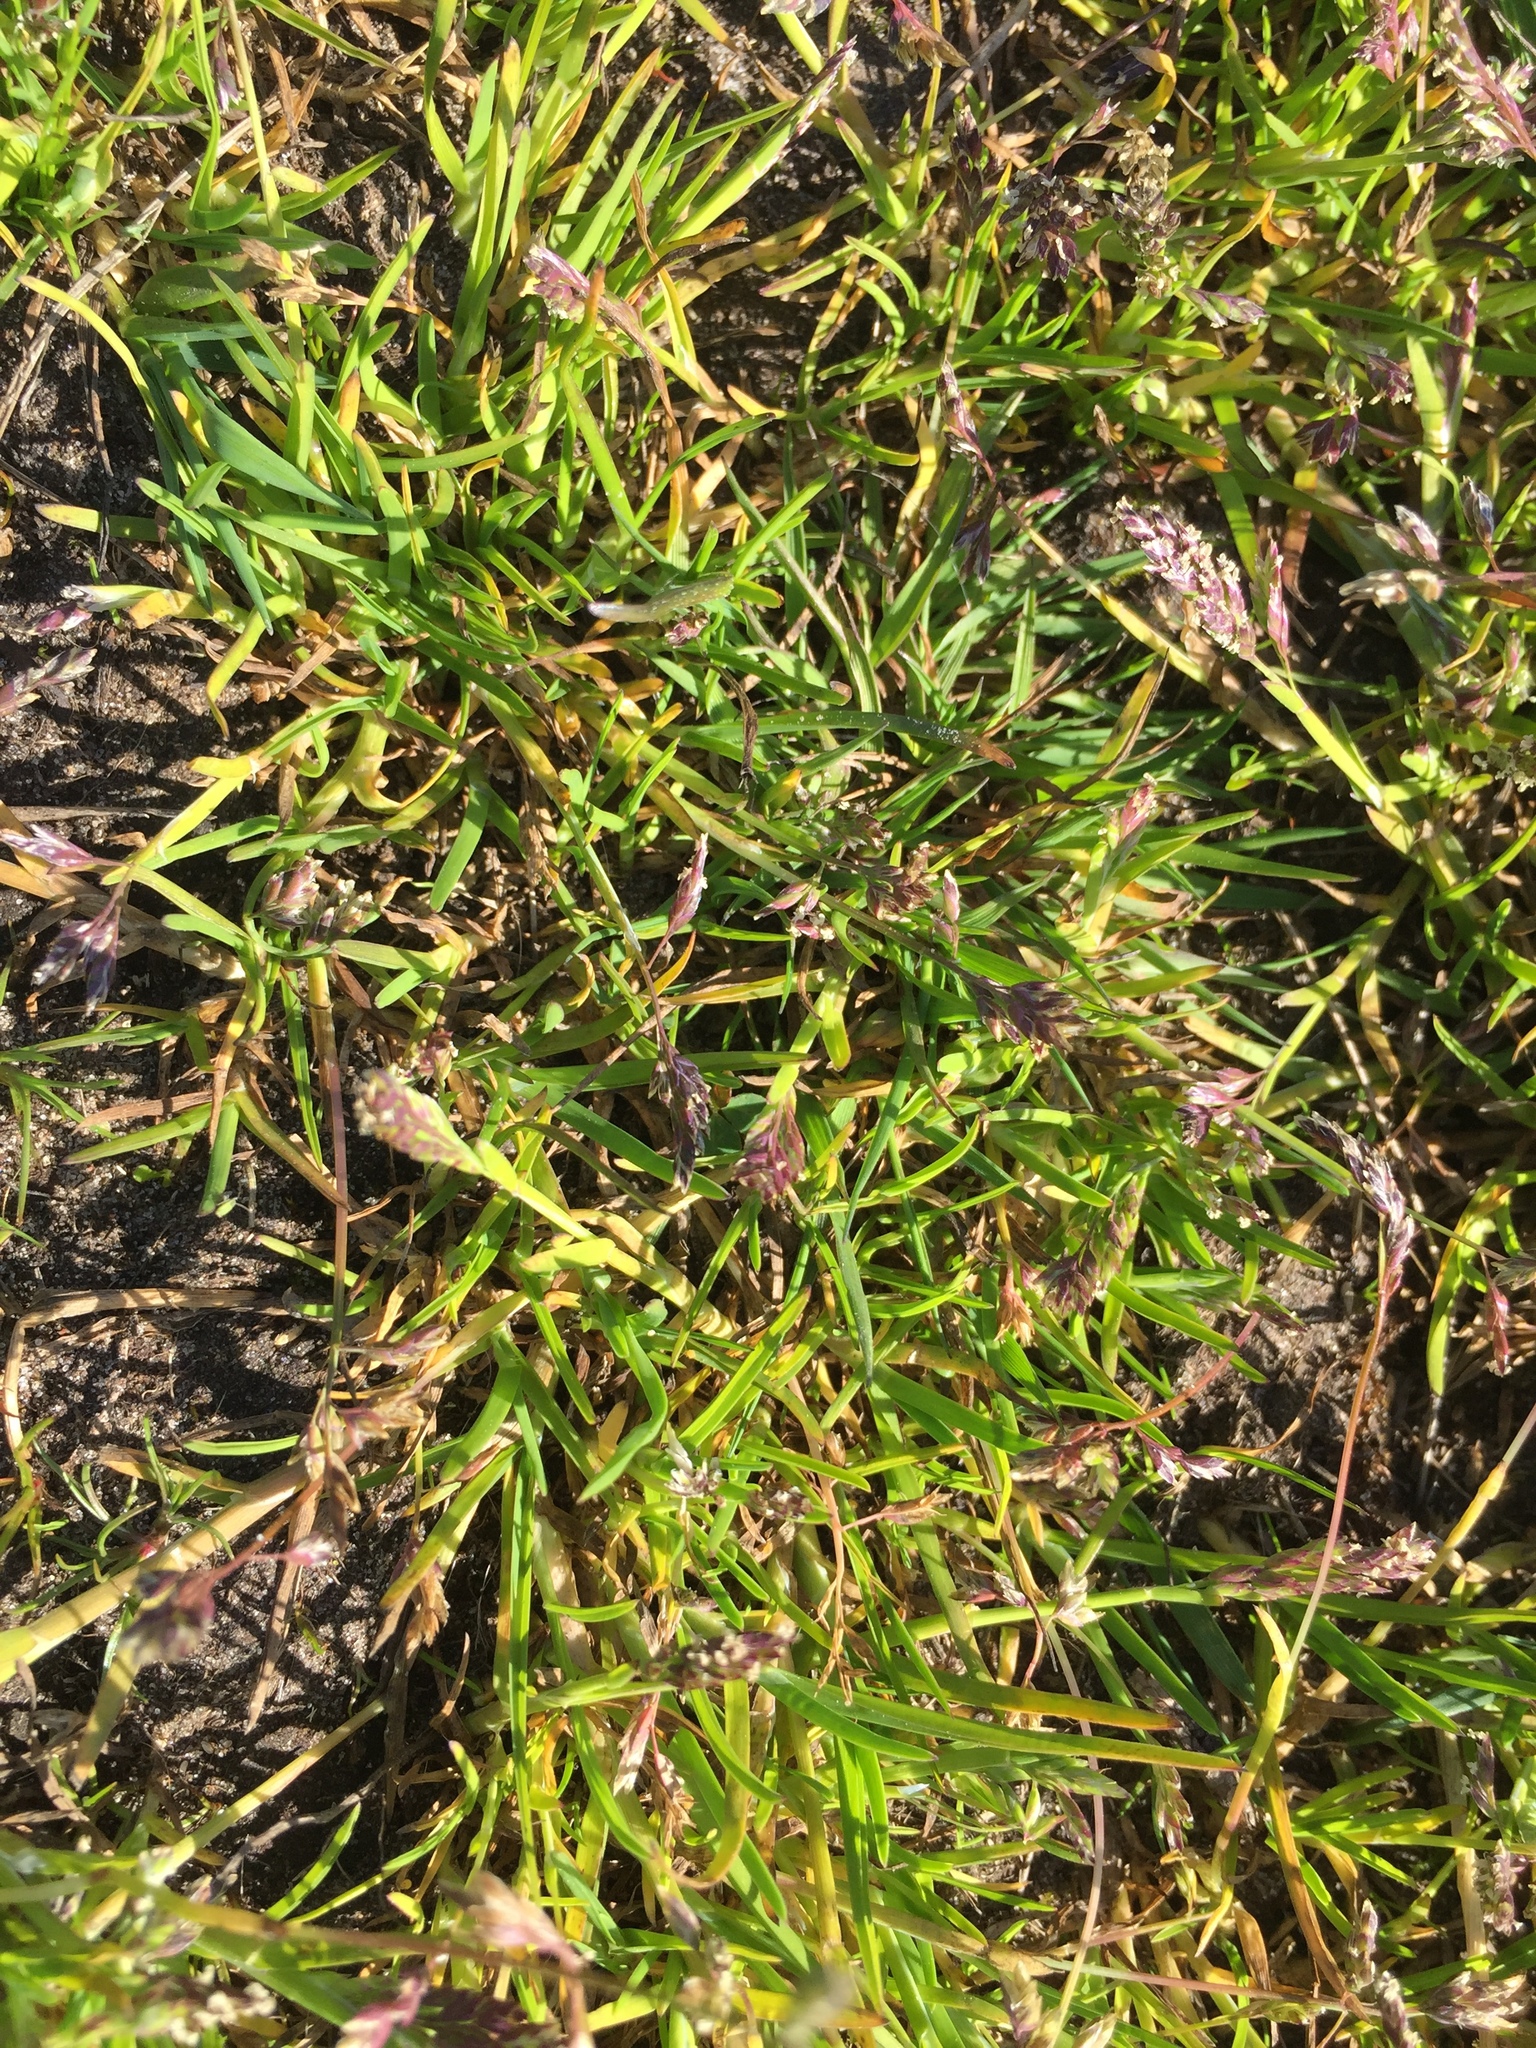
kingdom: Plantae
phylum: Tracheophyta
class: Liliopsida
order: Poales
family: Poaceae
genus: Poa
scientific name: Poa annua
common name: Annual bluegrass
